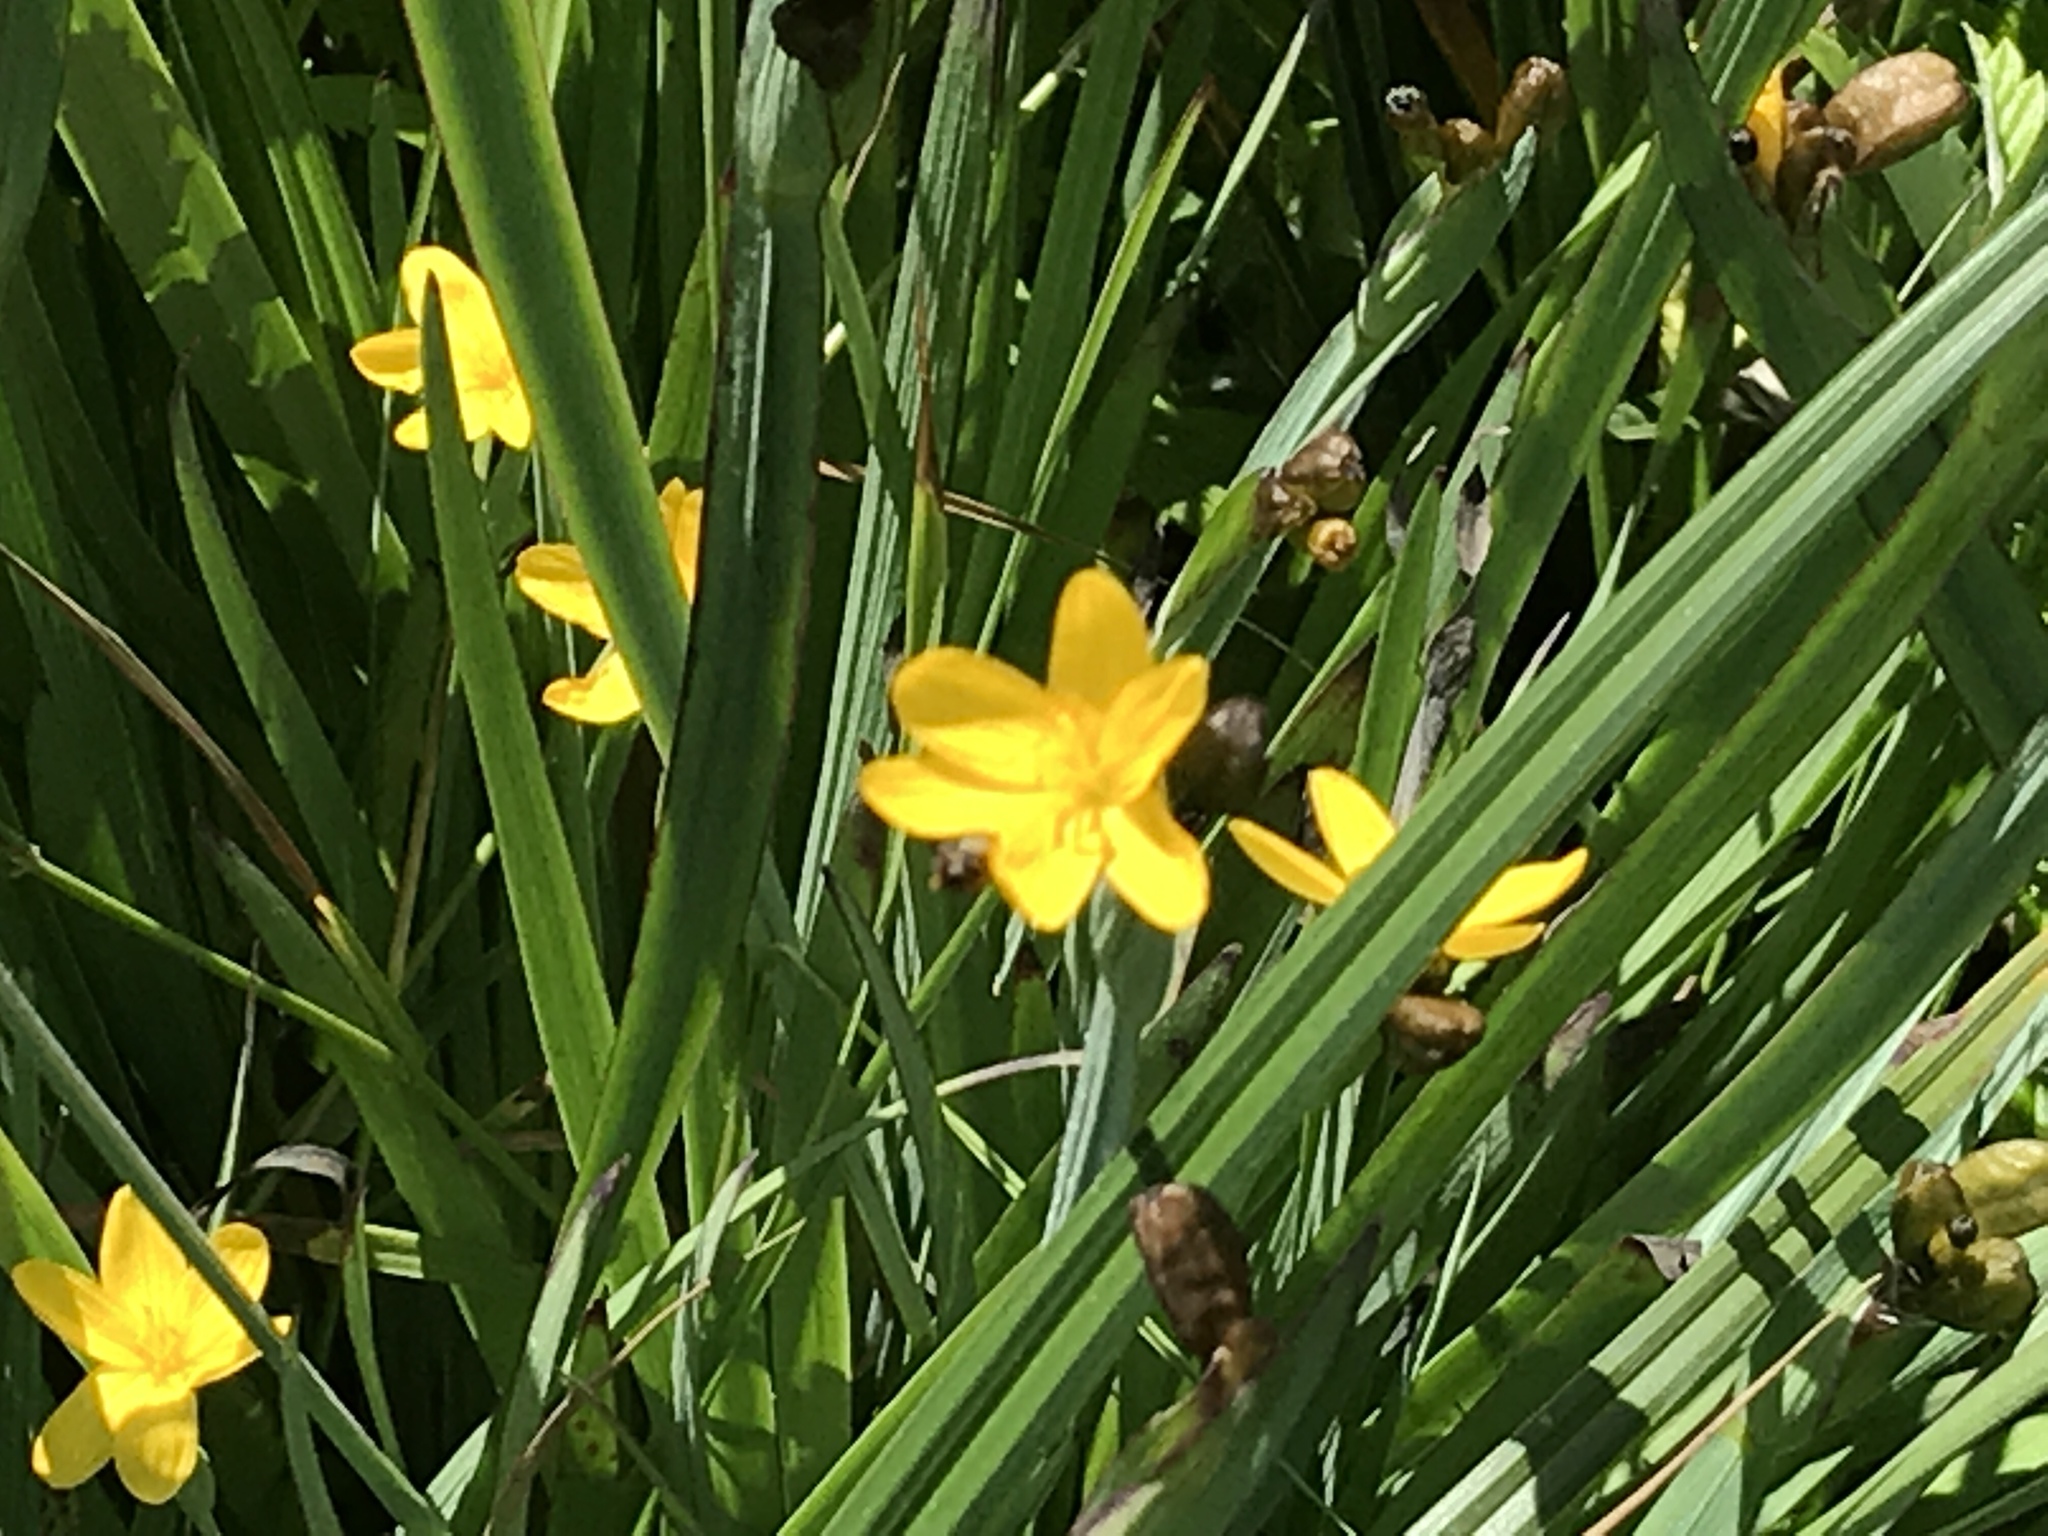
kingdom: Plantae
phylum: Tracheophyta
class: Liliopsida
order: Asparagales
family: Iridaceae
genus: Sisyrinchium
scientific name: Sisyrinchium californicum
